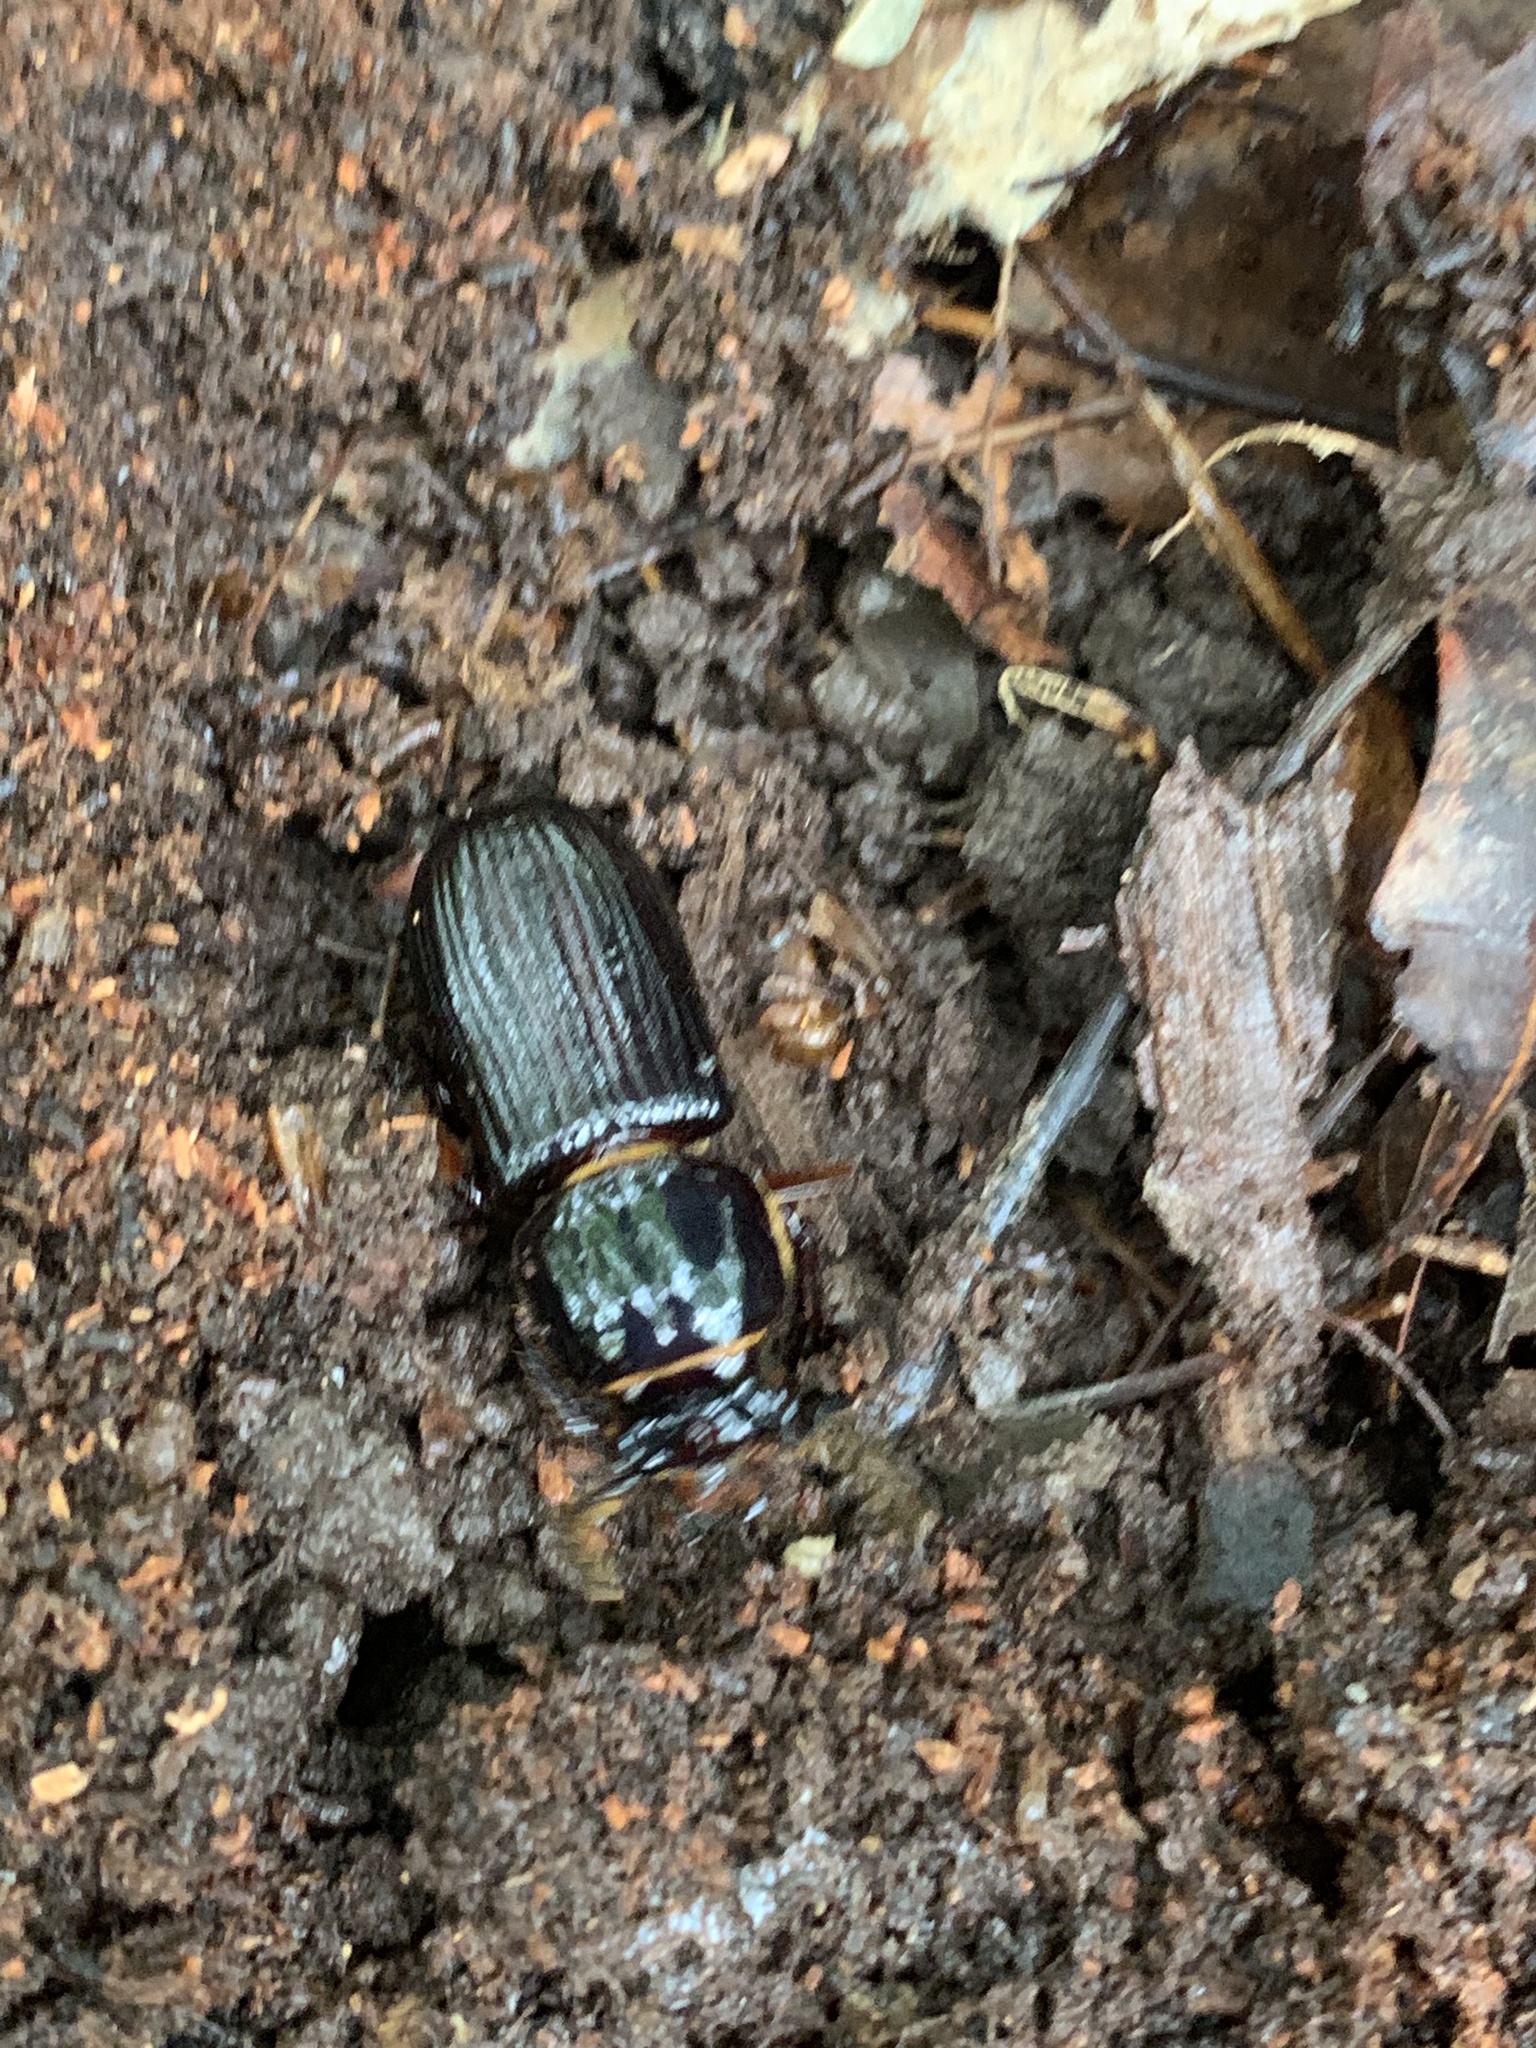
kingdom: Animalia
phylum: Arthropoda
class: Insecta
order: Coleoptera
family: Passalidae
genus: Odontotaenius
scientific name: Odontotaenius disjunctus
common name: Patent leather beetle
